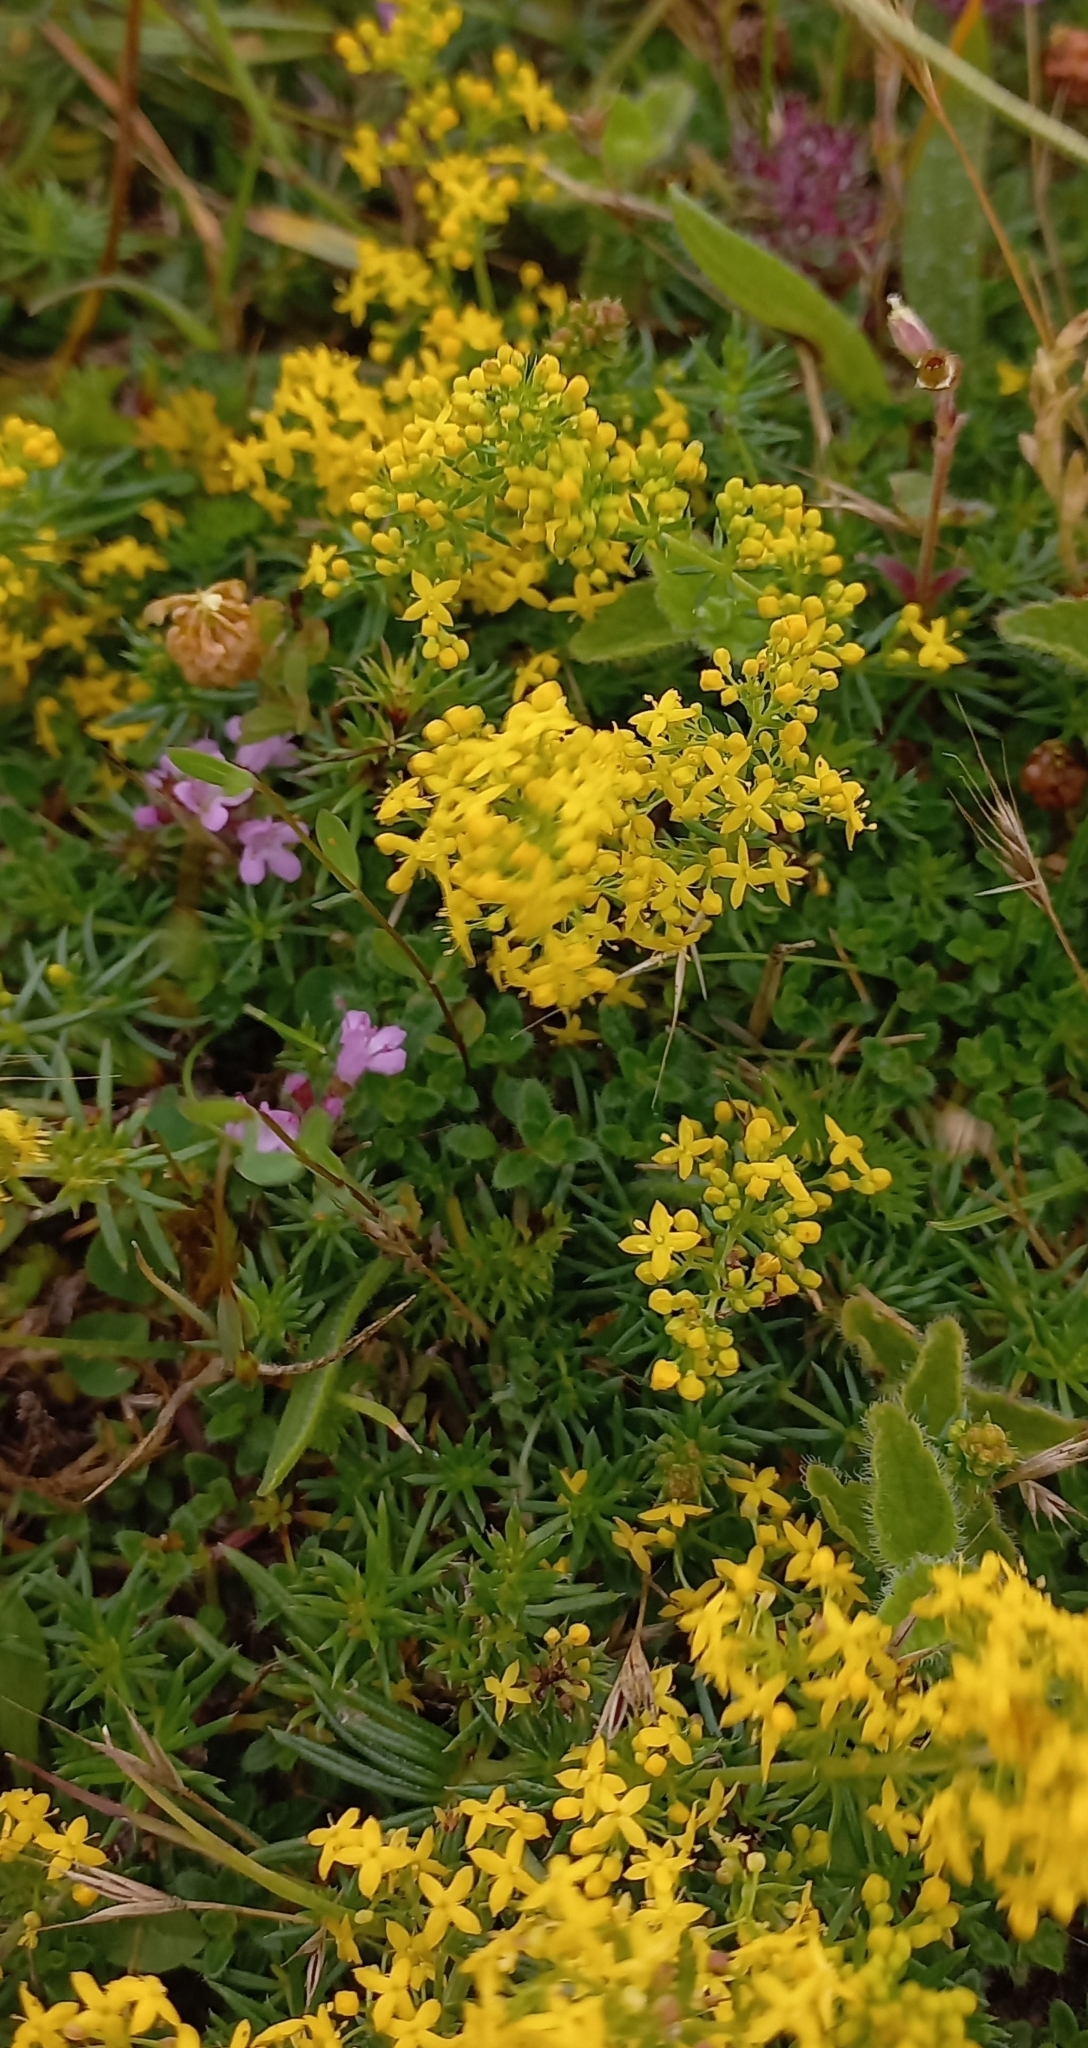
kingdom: Plantae
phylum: Tracheophyta
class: Magnoliopsida
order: Gentianales
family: Rubiaceae
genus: Galium
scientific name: Galium verum
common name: Lady's bedstraw
